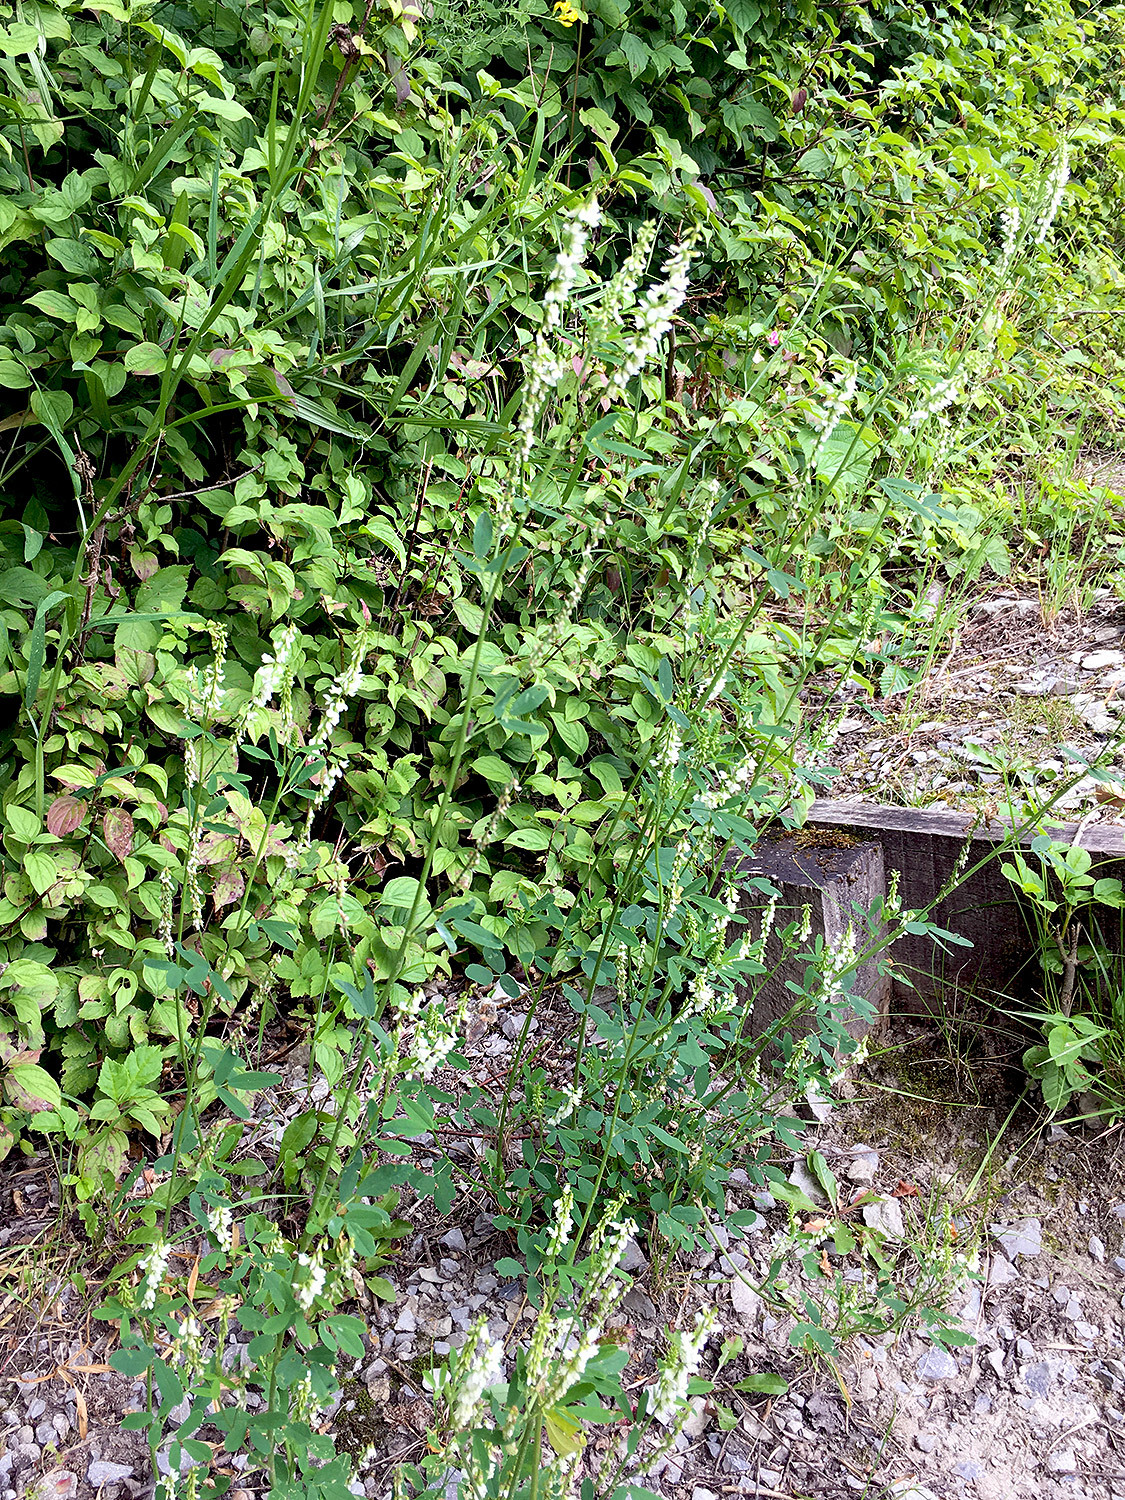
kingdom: Plantae
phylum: Tracheophyta
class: Magnoliopsida
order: Fabales
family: Fabaceae
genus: Melilotus
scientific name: Melilotus albus
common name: White melilot
